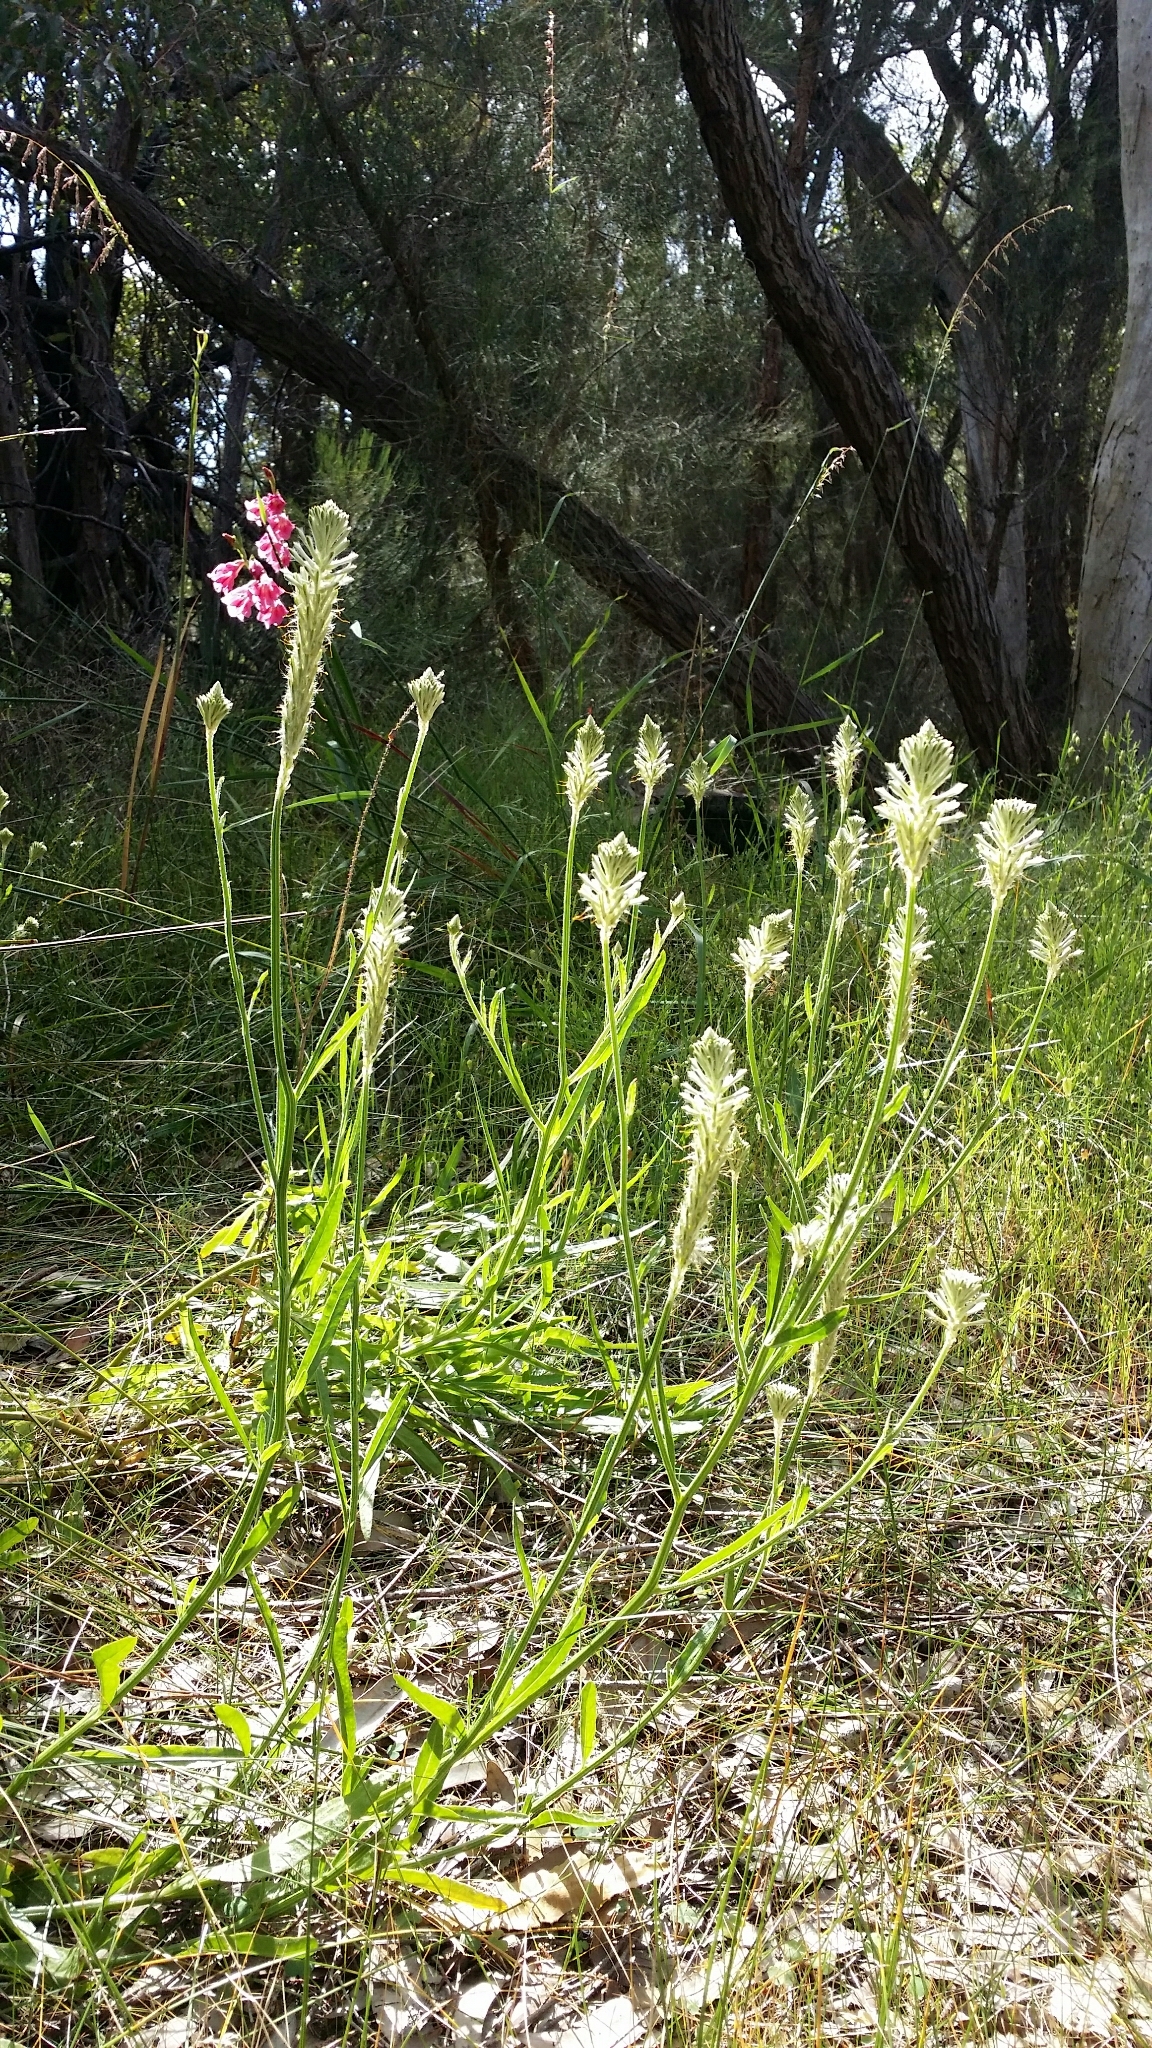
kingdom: Plantae
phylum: Tracheophyta
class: Magnoliopsida
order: Caryophyllales
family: Amaranthaceae
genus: Ptilotus
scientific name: Ptilotus polystachyus
